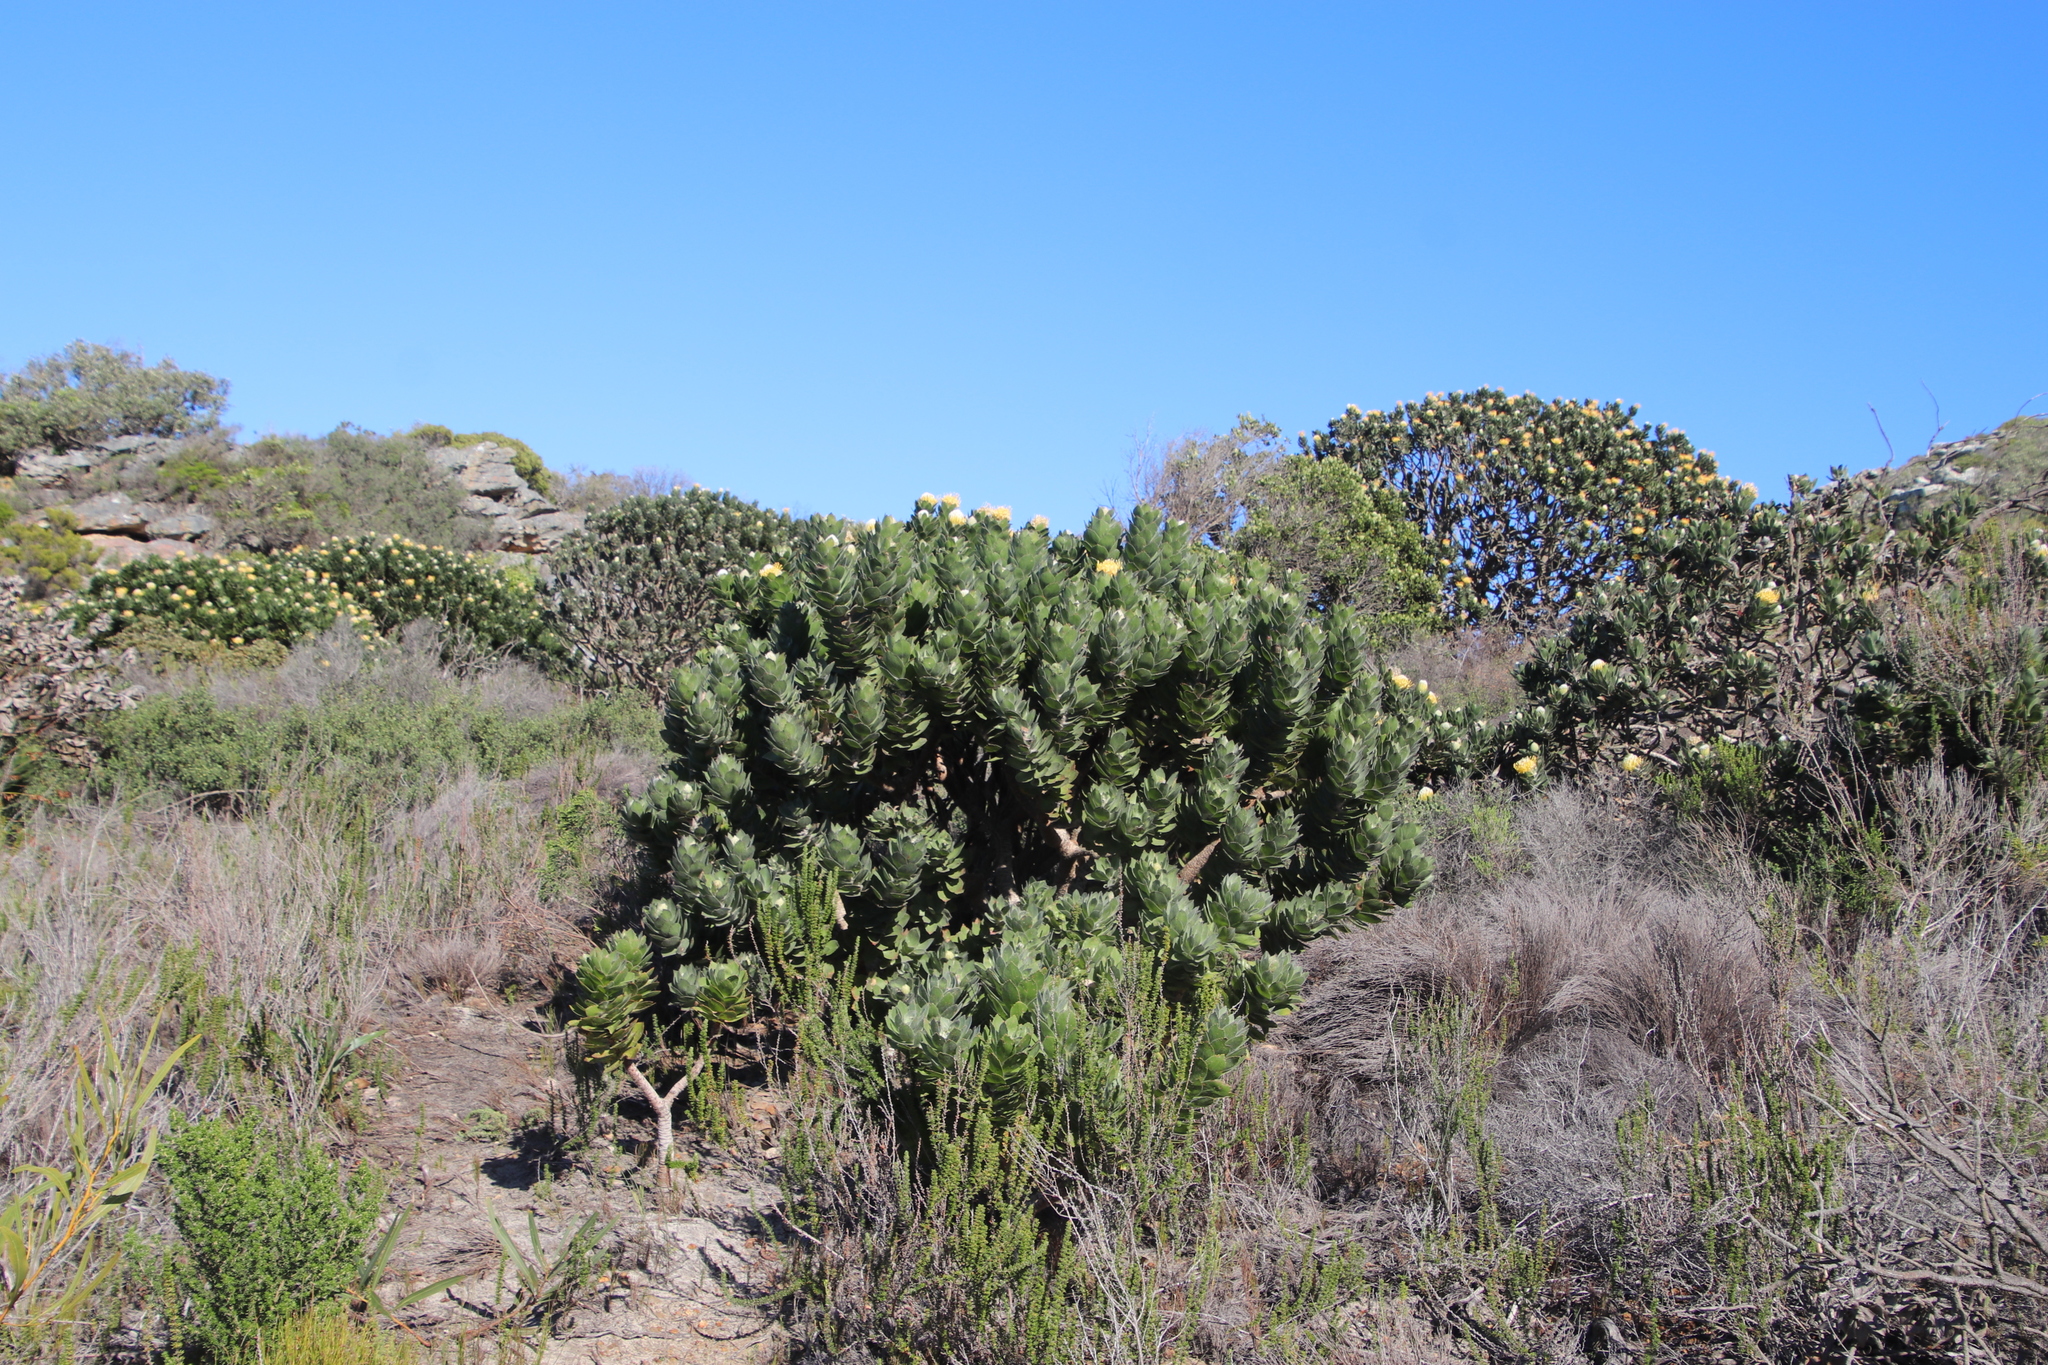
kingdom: Plantae
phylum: Tracheophyta
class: Magnoliopsida
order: Proteales
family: Proteaceae
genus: Leucospermum
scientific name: Leucospermum conocarpodendron
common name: Tree pincushion
